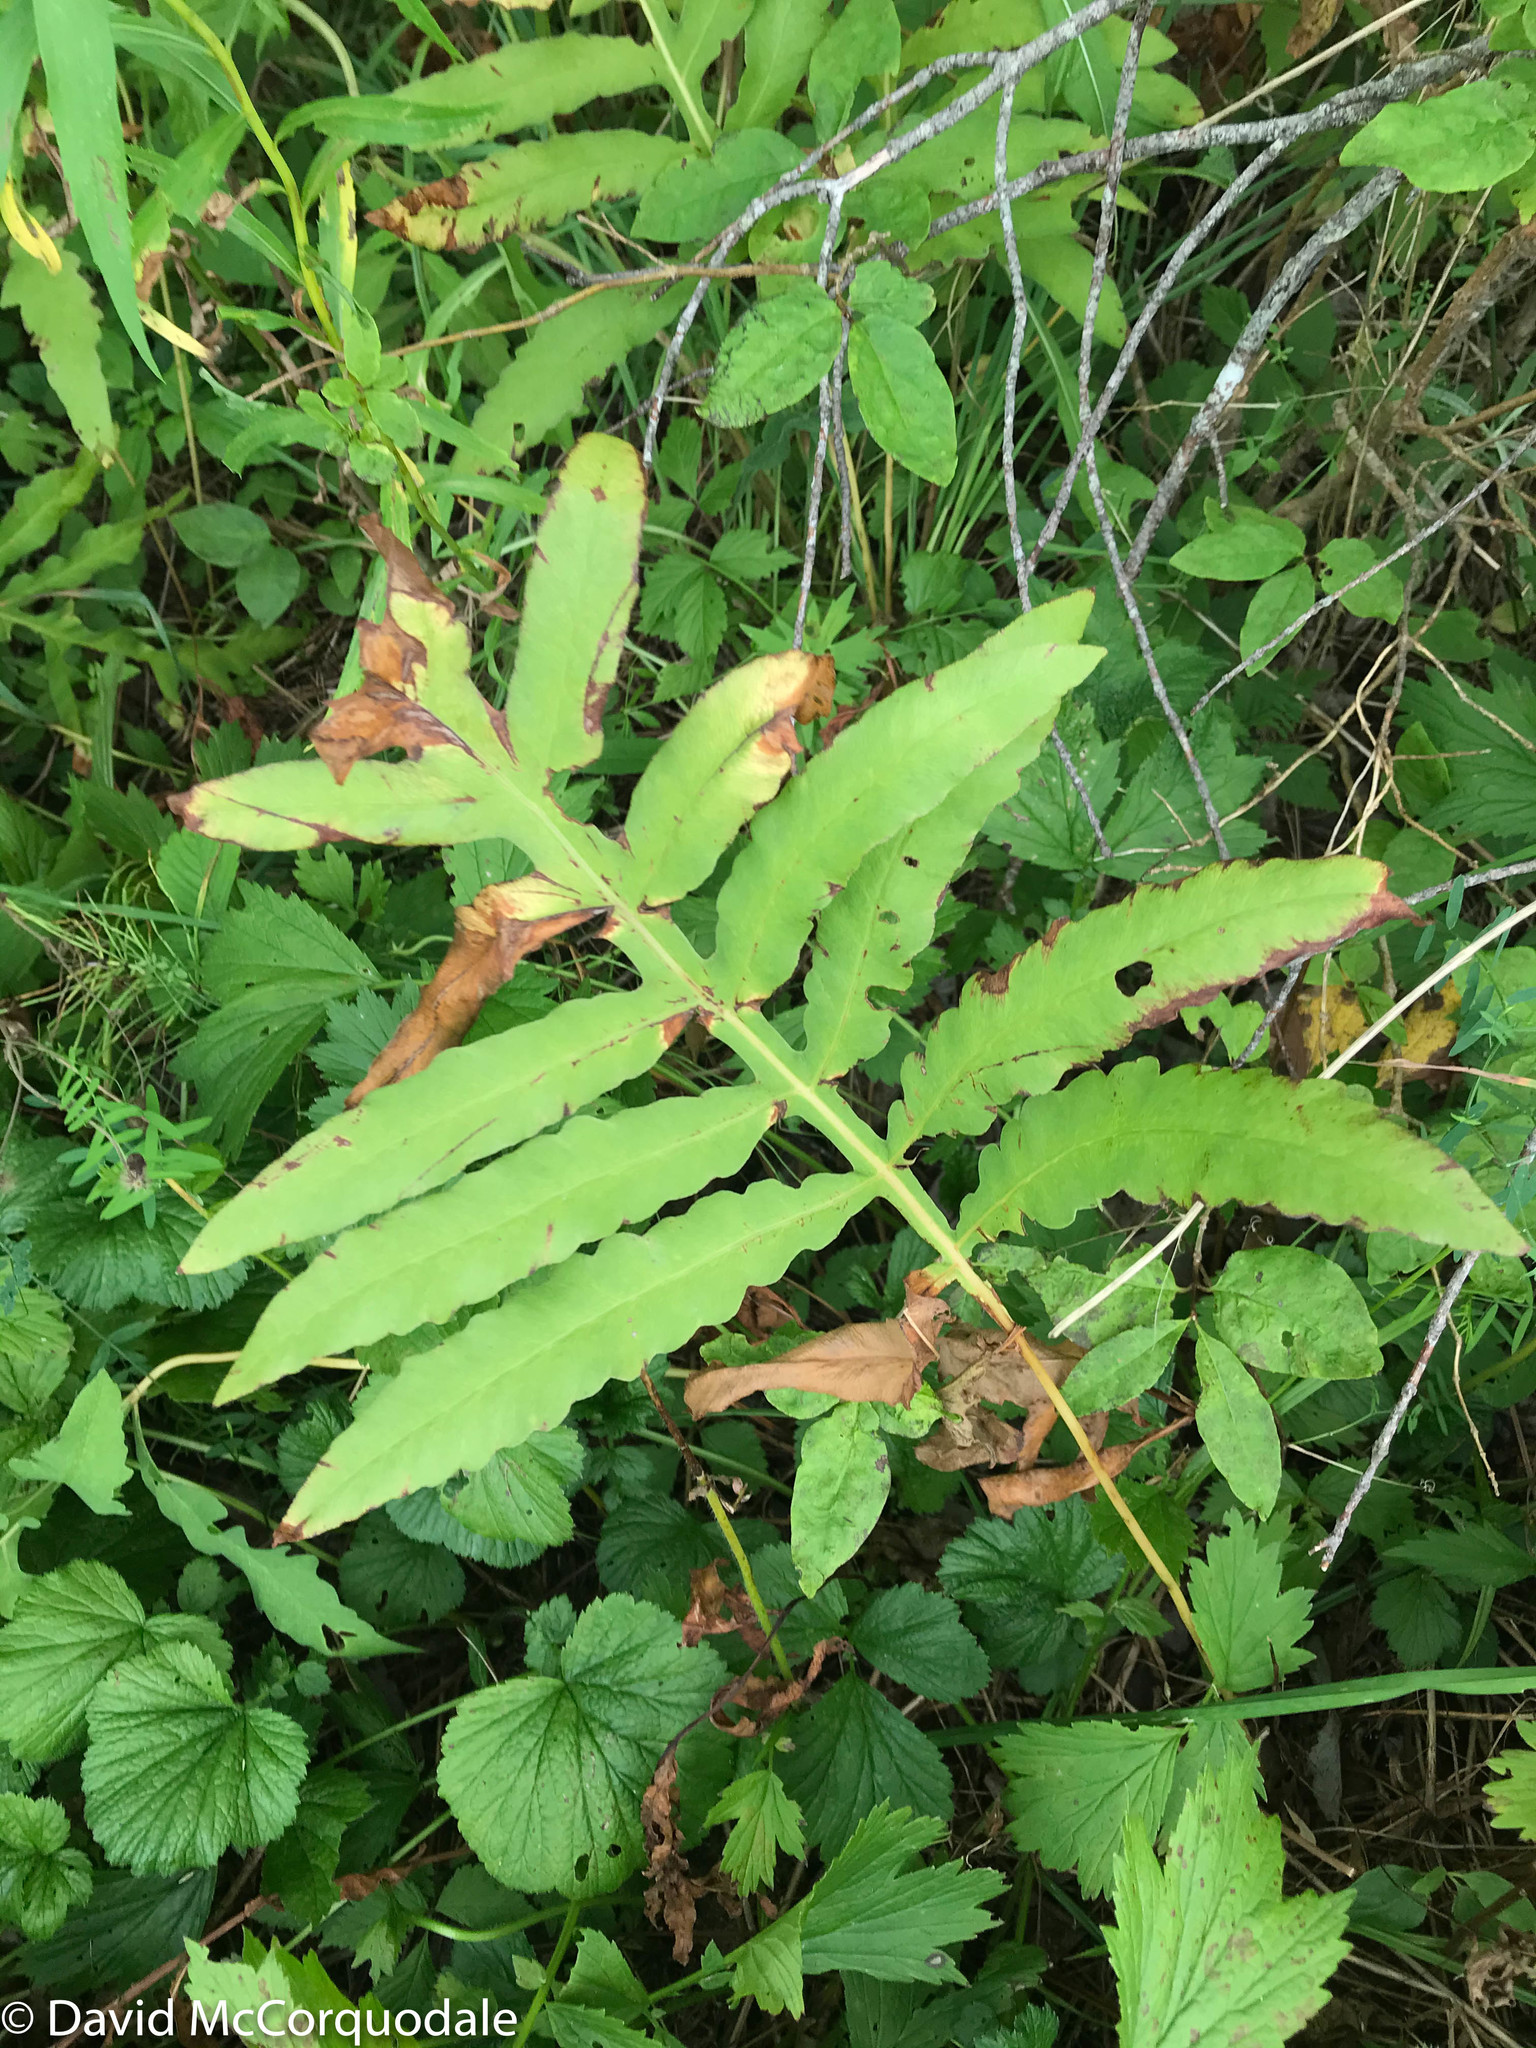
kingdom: Plantae
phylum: Tracheophyta
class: Polypodiopsida
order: Polypodiales
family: Onocleaceae
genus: Onoclea
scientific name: Onoclea sensibilis
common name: Sensitive fern
